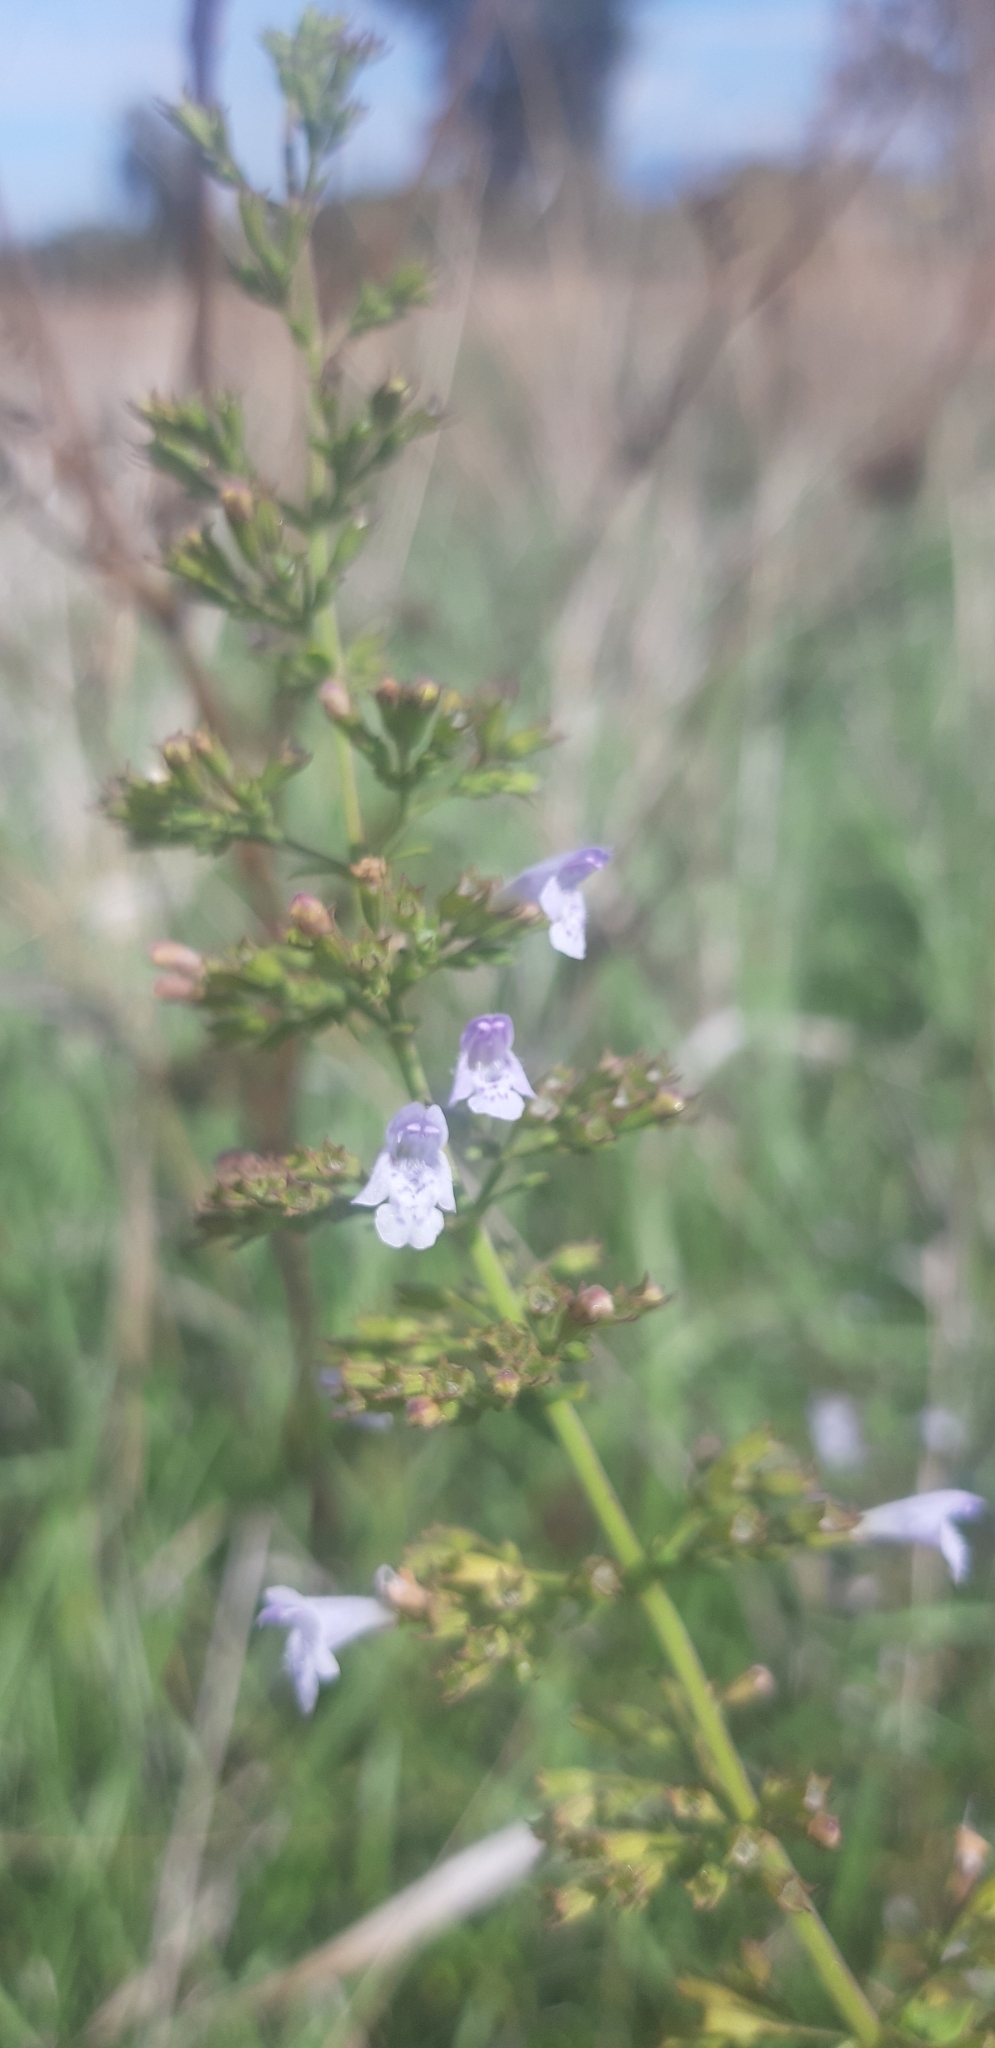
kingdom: Plantae
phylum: Tracheophyta
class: Magnoliopsida
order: Lamiales
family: Lamiaceae
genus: Clinopodium
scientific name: Clinopodium nepeta
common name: Lesser calamint
